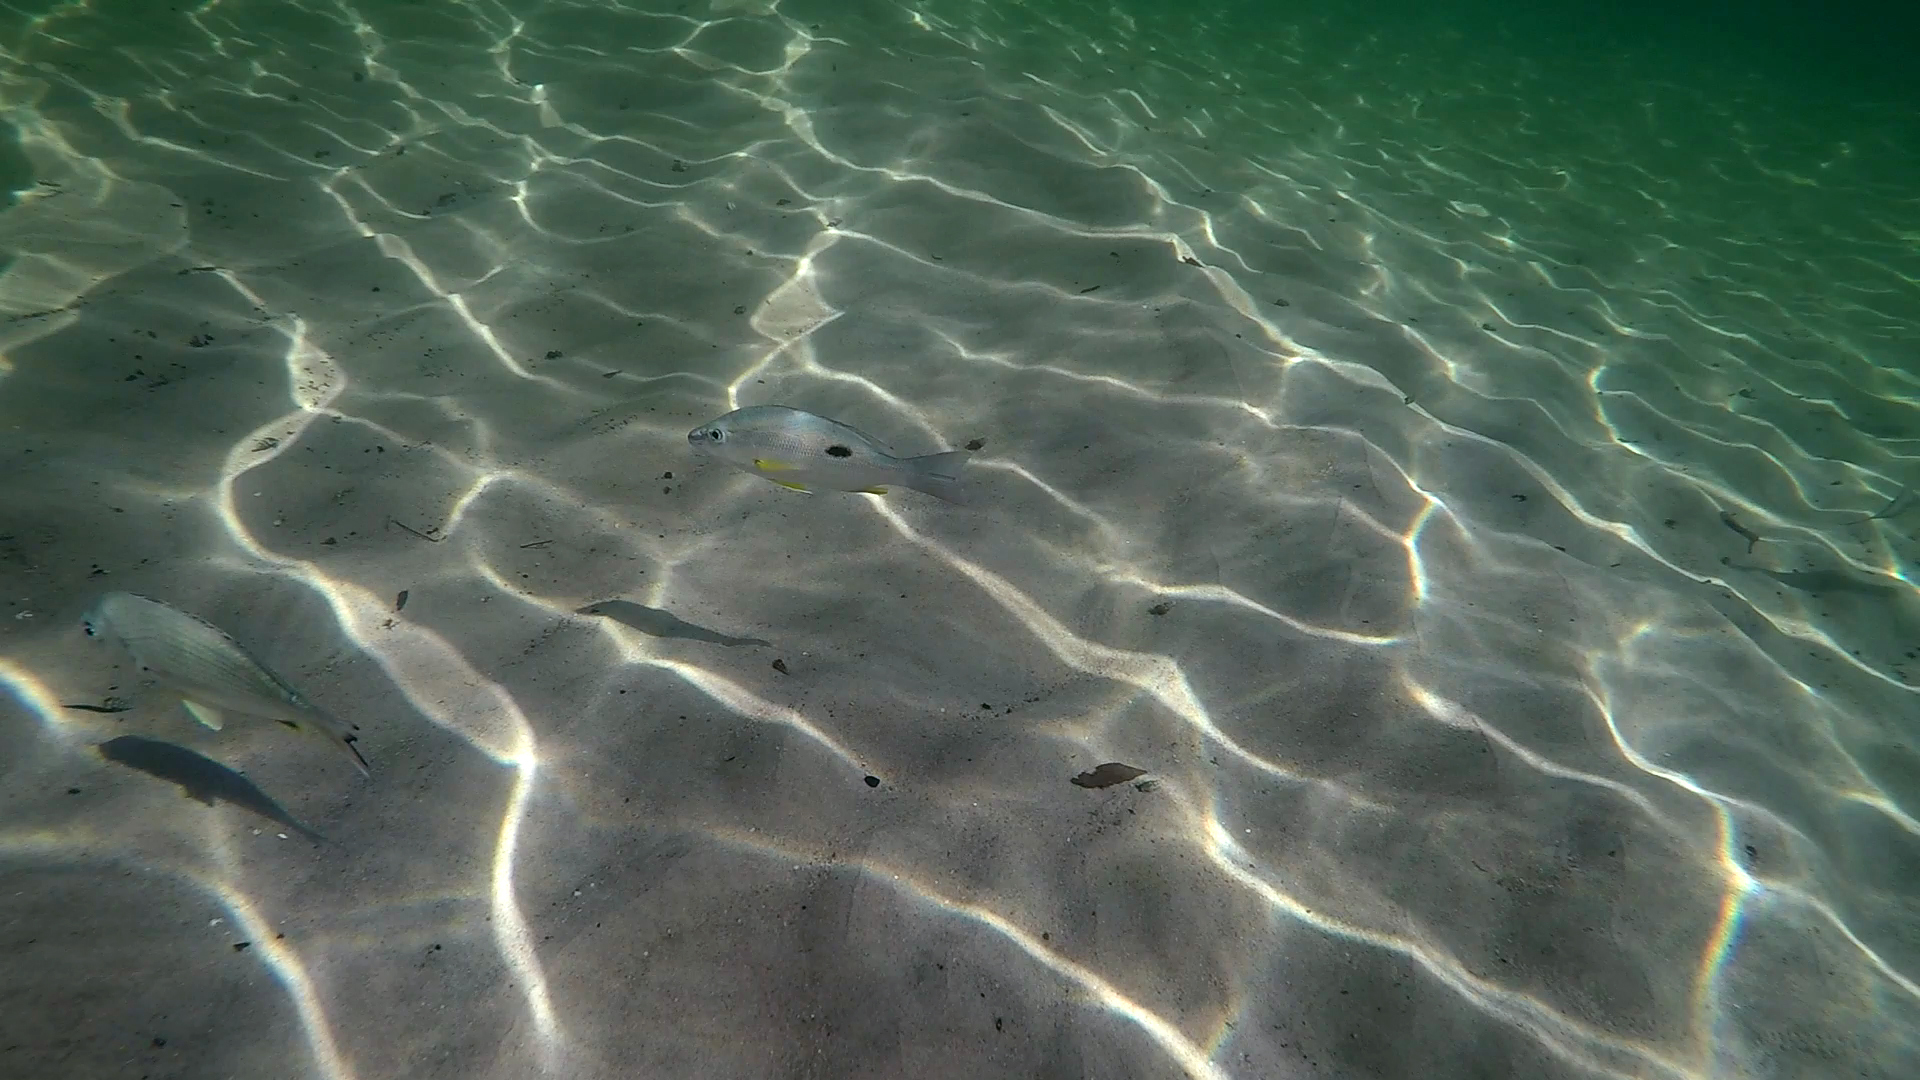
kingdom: Animalia
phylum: Chordata
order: Perciformes
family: Lutjanidae
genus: Lutjanus
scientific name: Lutjanus russellii
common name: Russell's snapper
